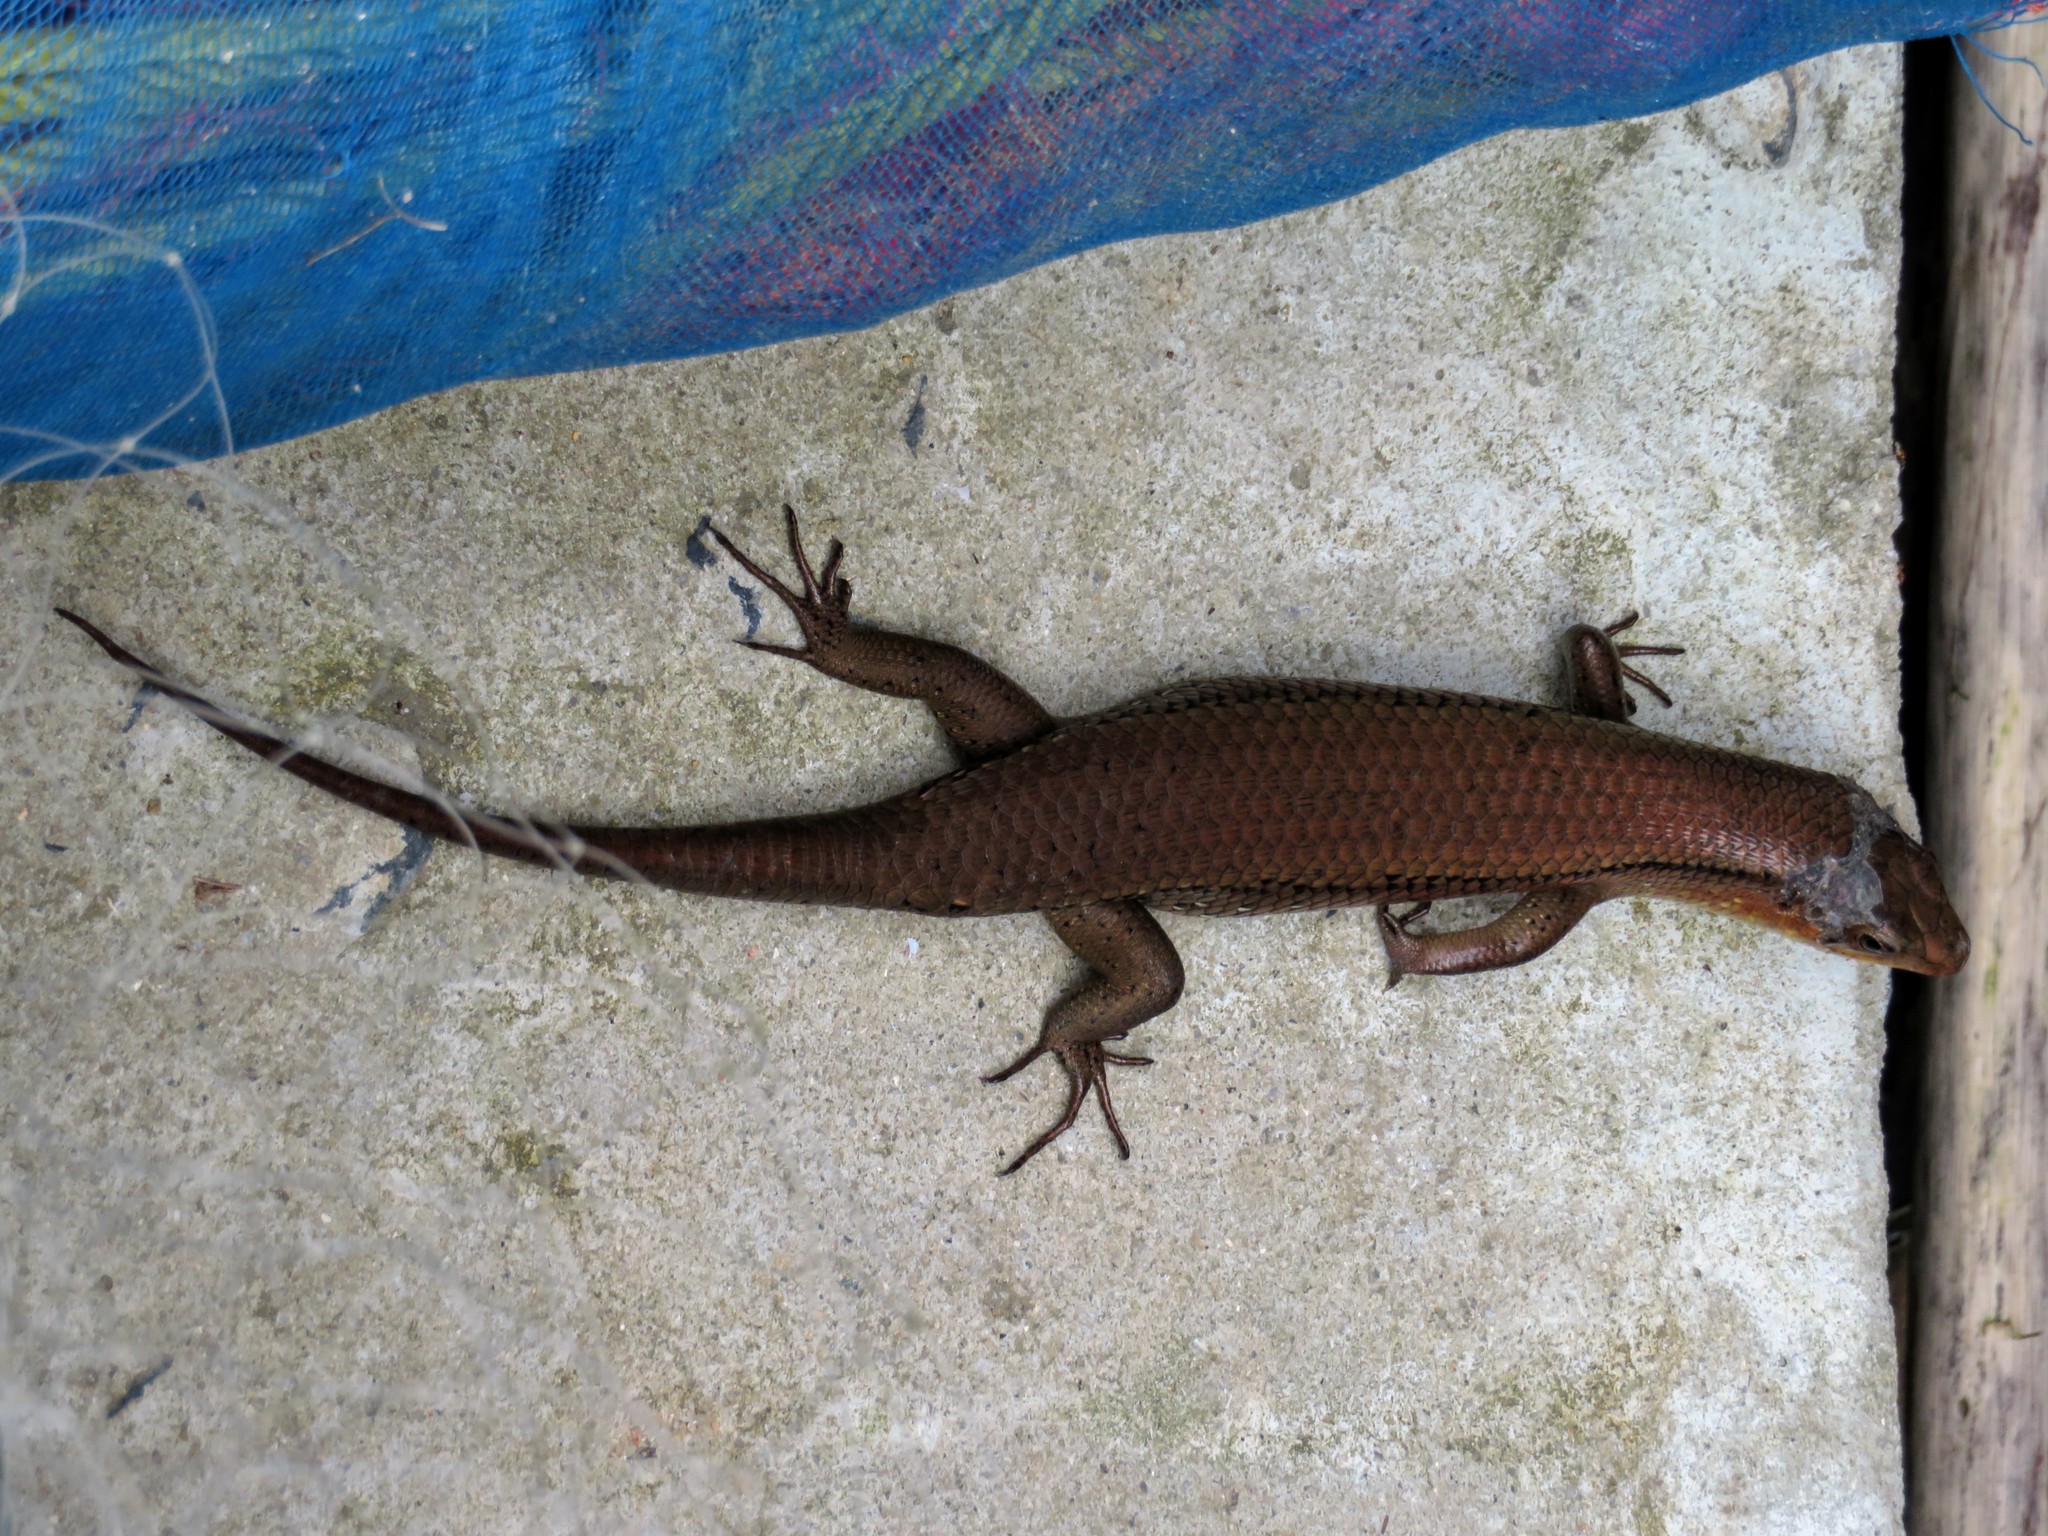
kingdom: Animalia
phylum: Chordata
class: Squamata
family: Scincidae
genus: Eutropis
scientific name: Eutropis multifasciata
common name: Common mabuya
